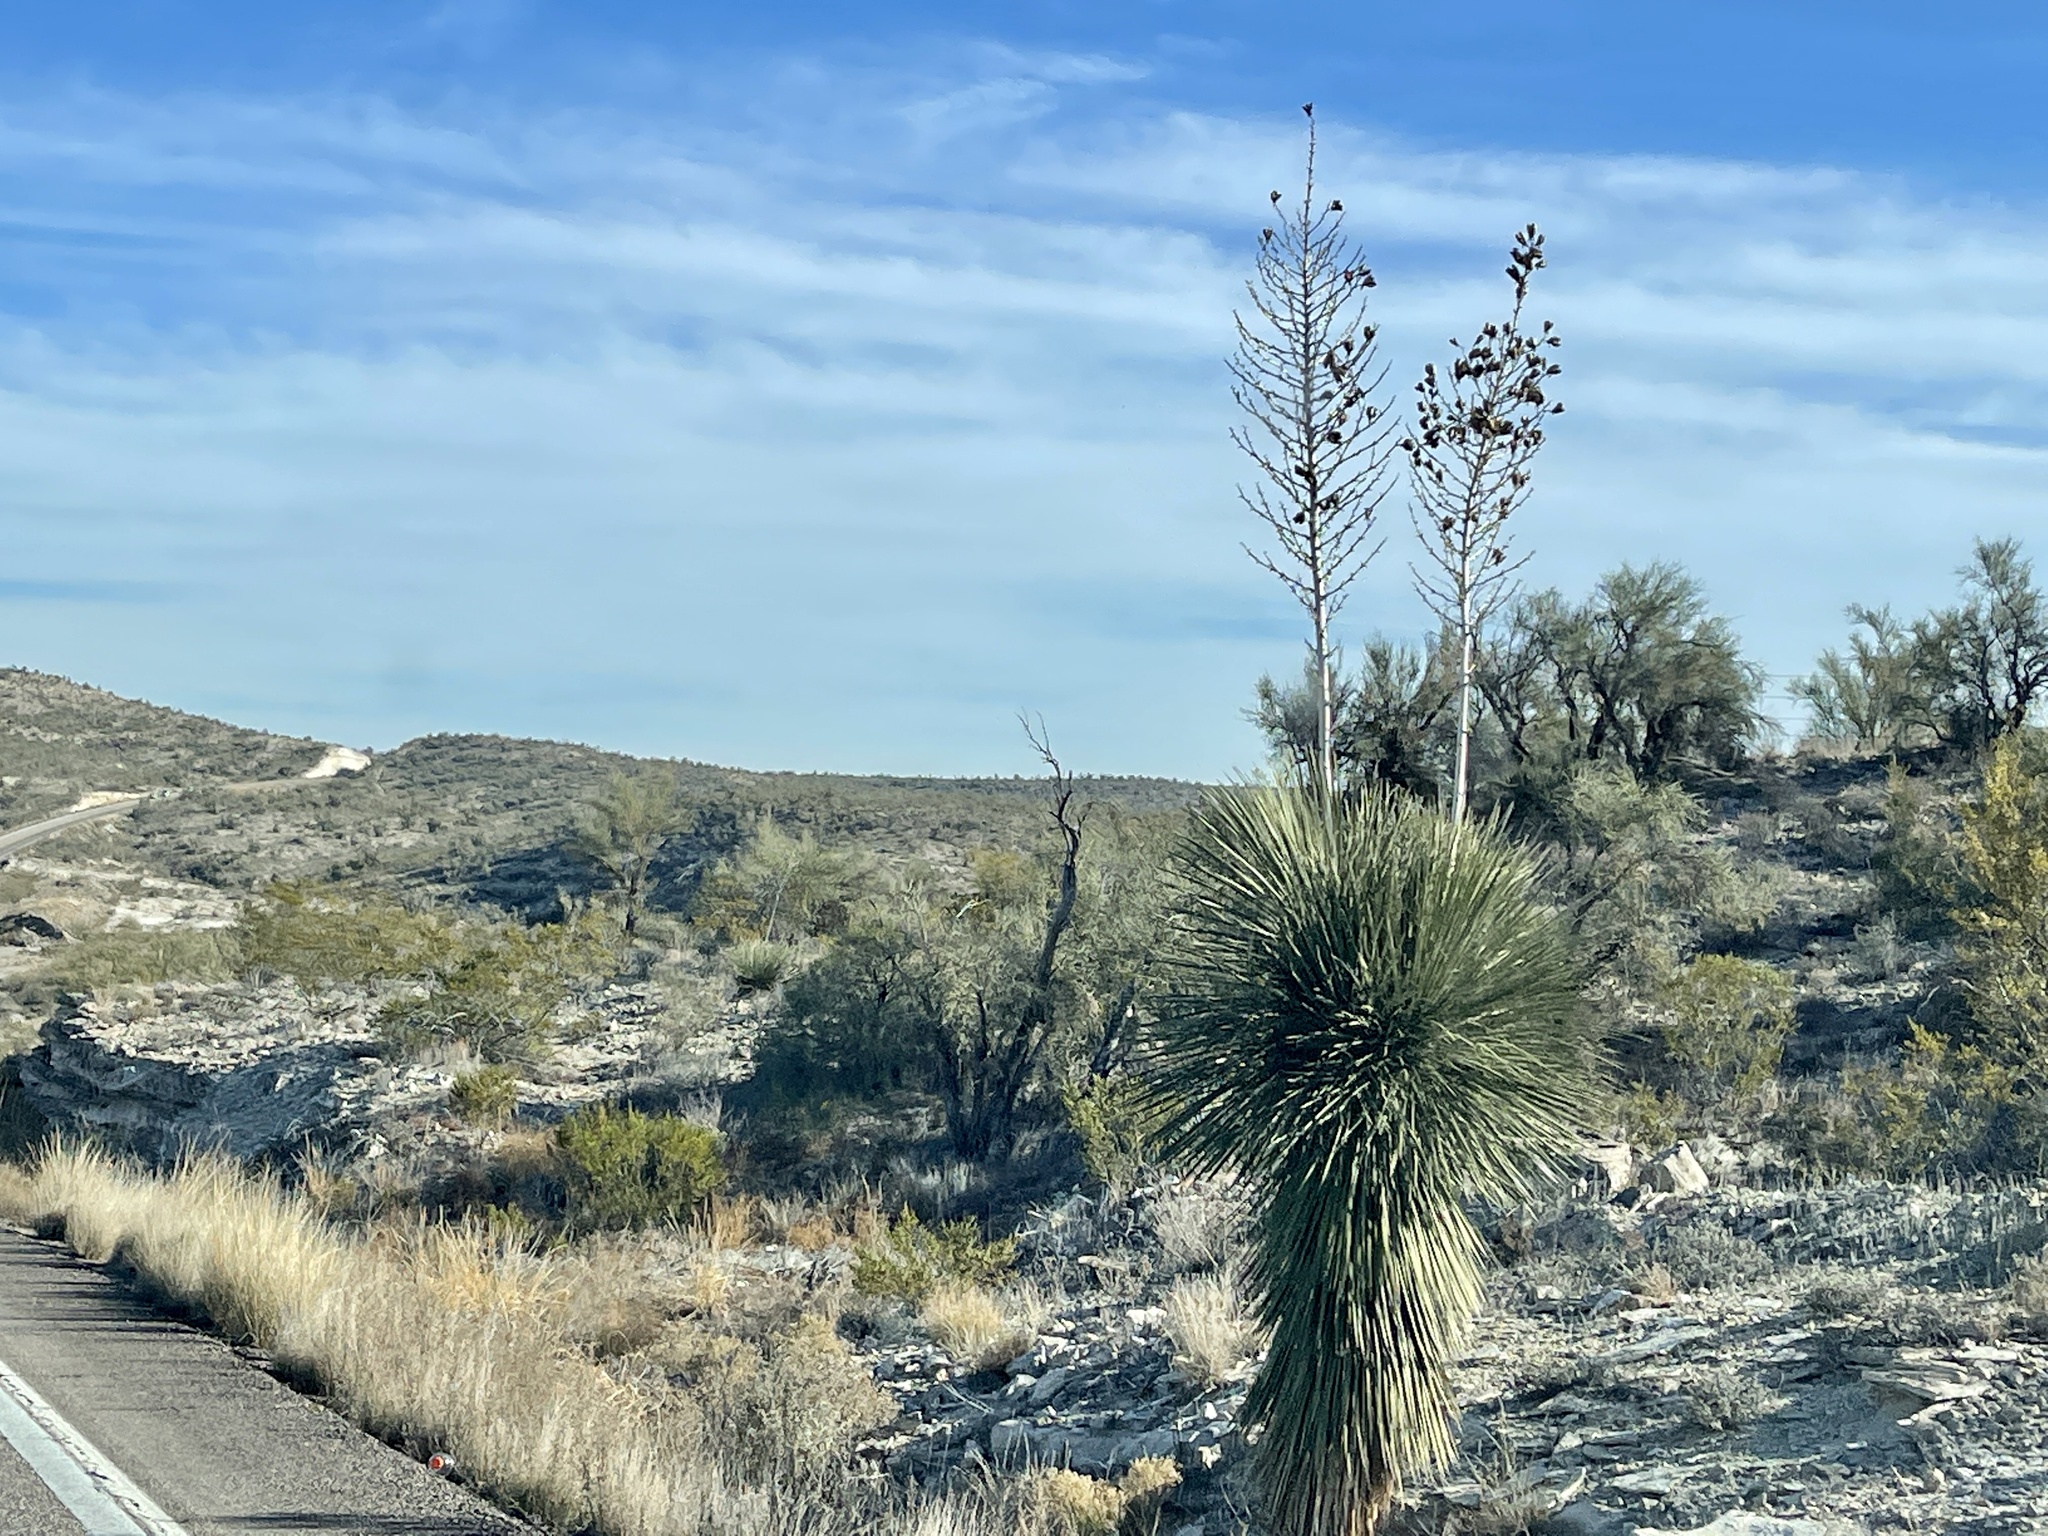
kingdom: Plantae
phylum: Tracheophyta
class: Liliopsida
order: Asparagales
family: Asparagaceae
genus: Yucca
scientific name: Yucca elata
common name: Palmella
